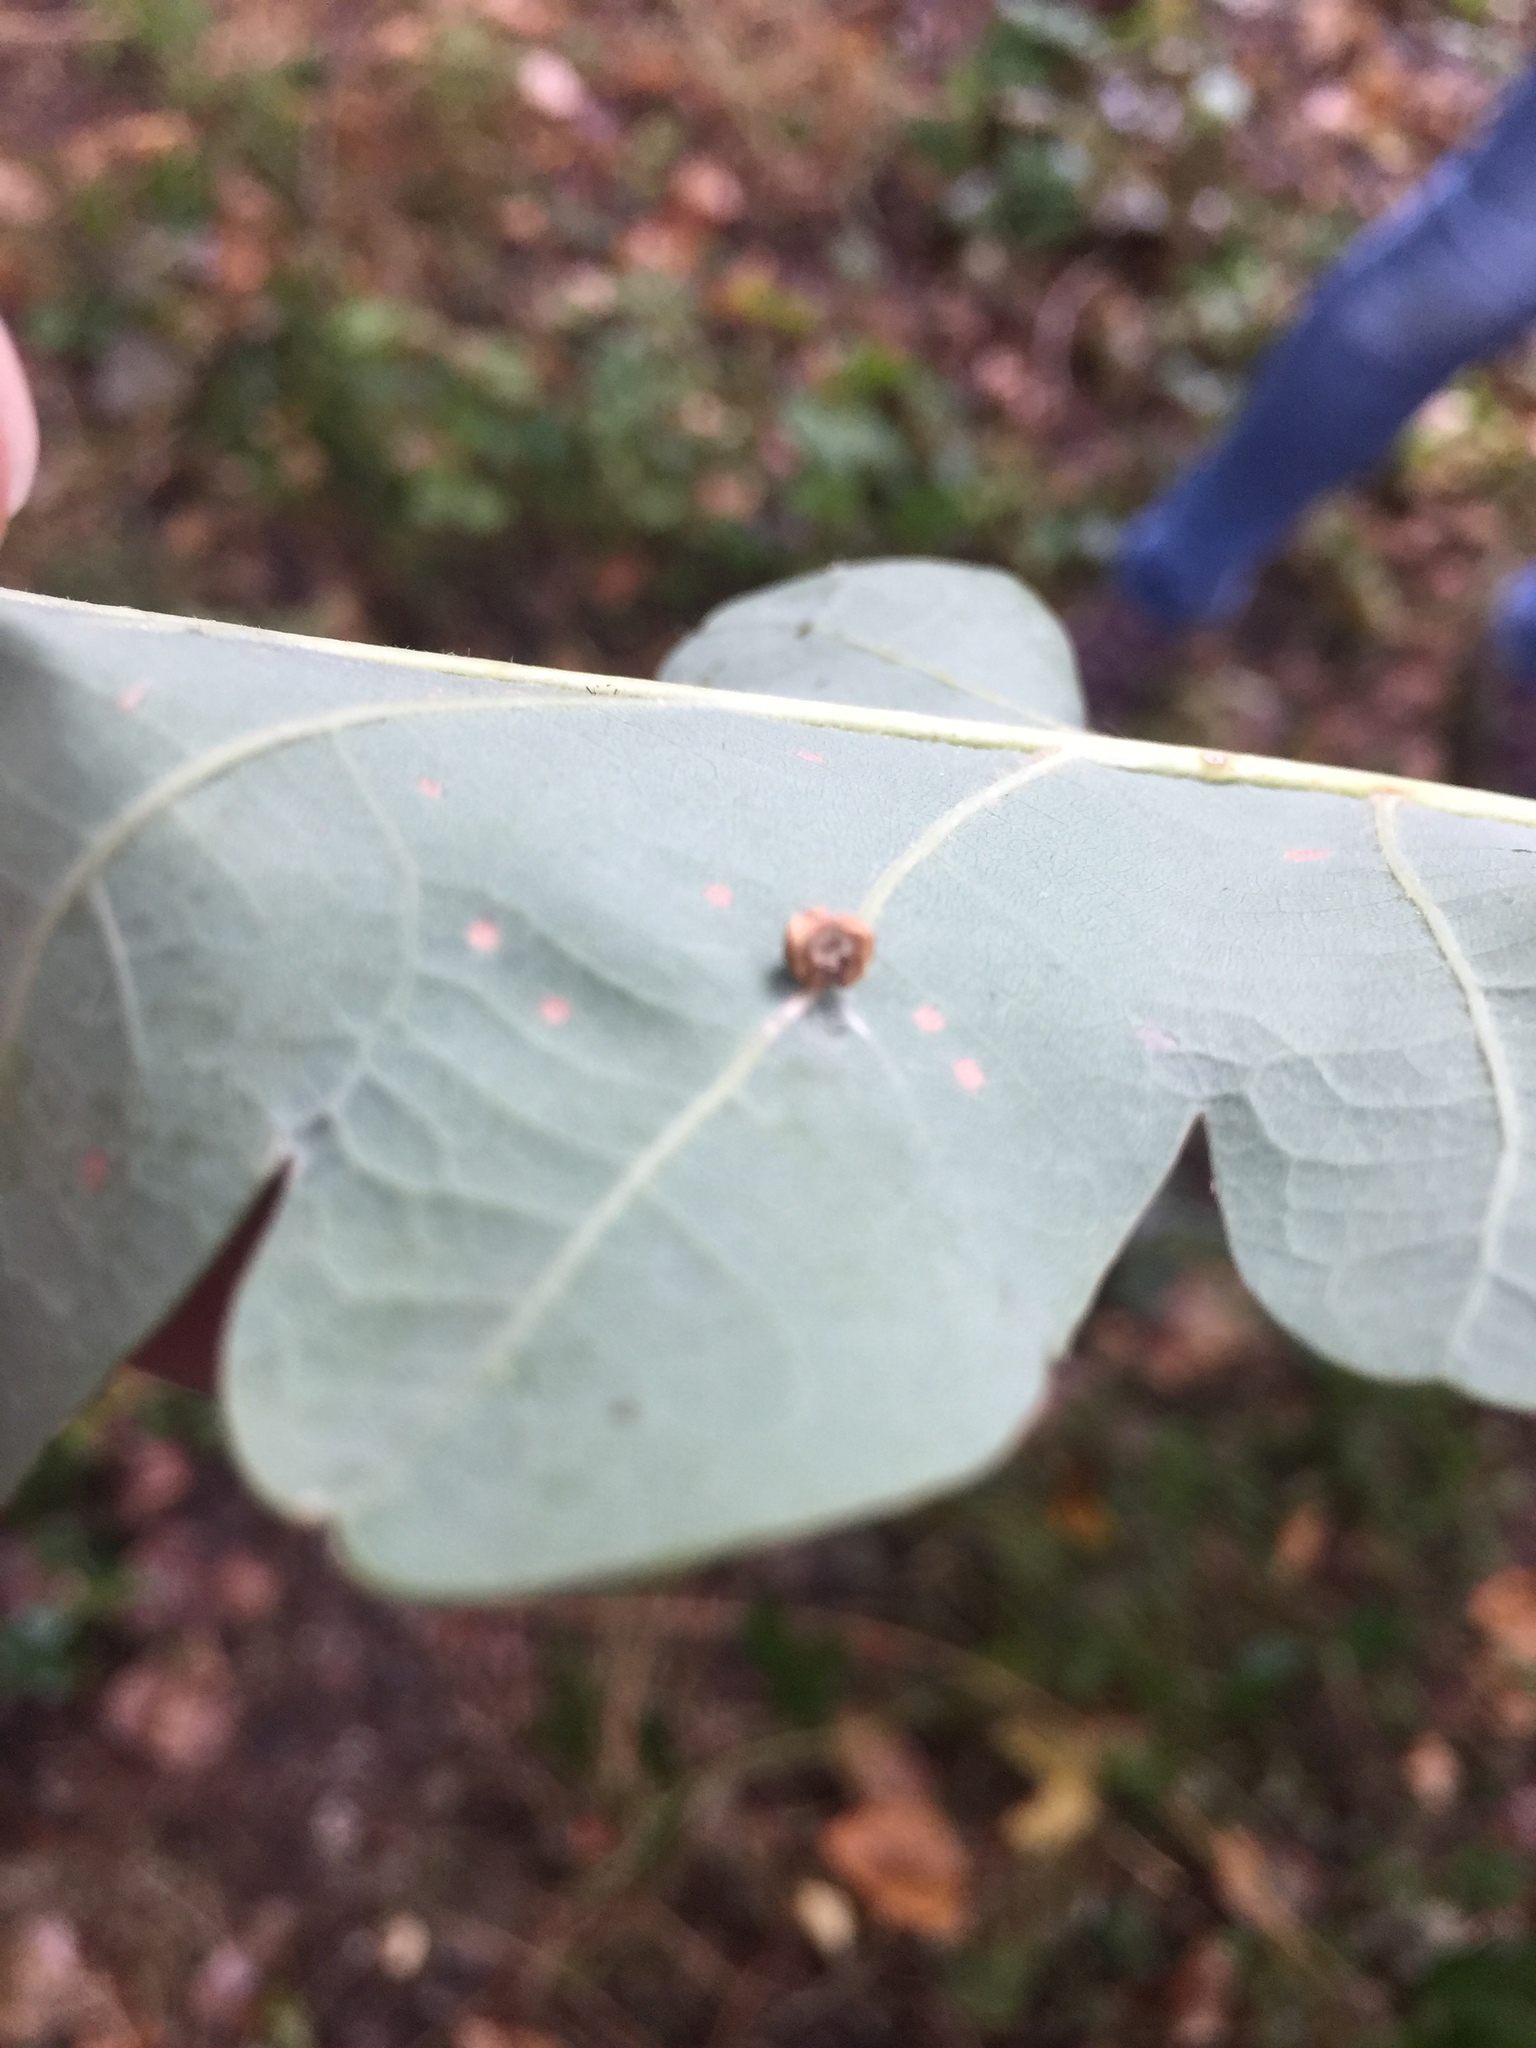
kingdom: Animalia
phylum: Arthropoda
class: Insecta
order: Hymenoptera
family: Cynipidae
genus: Cynips
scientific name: Cynips disticha
